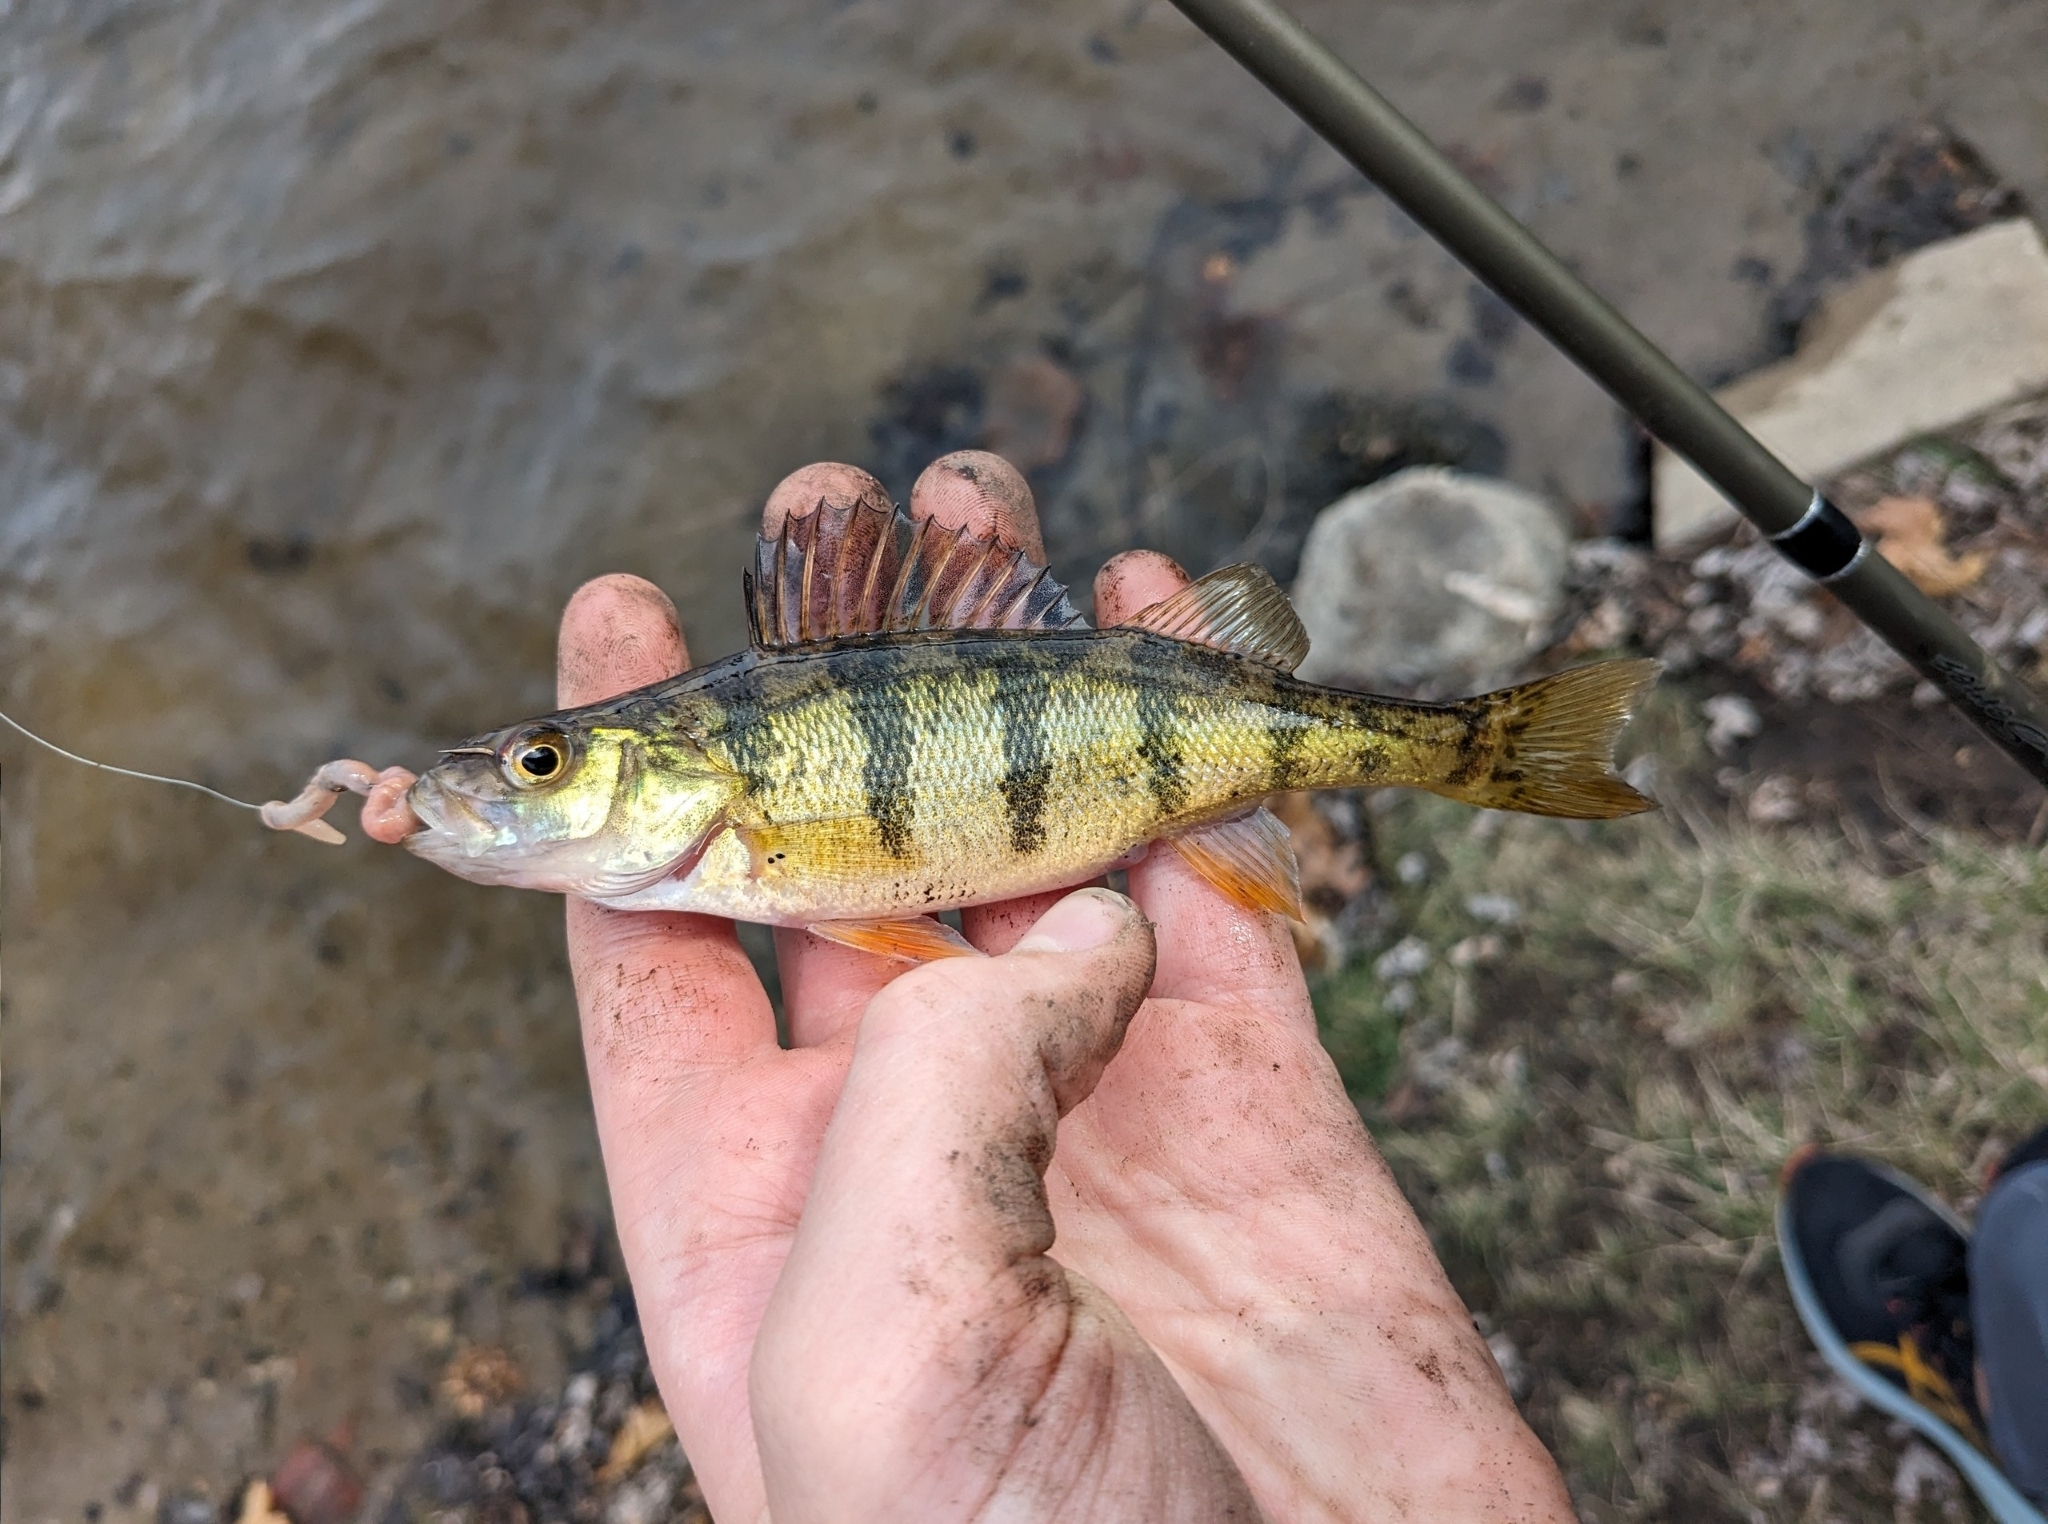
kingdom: Animalia
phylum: Chordata
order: Perciformes
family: Percidae
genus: Perca
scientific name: Perca flavescens
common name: Yellow perch
